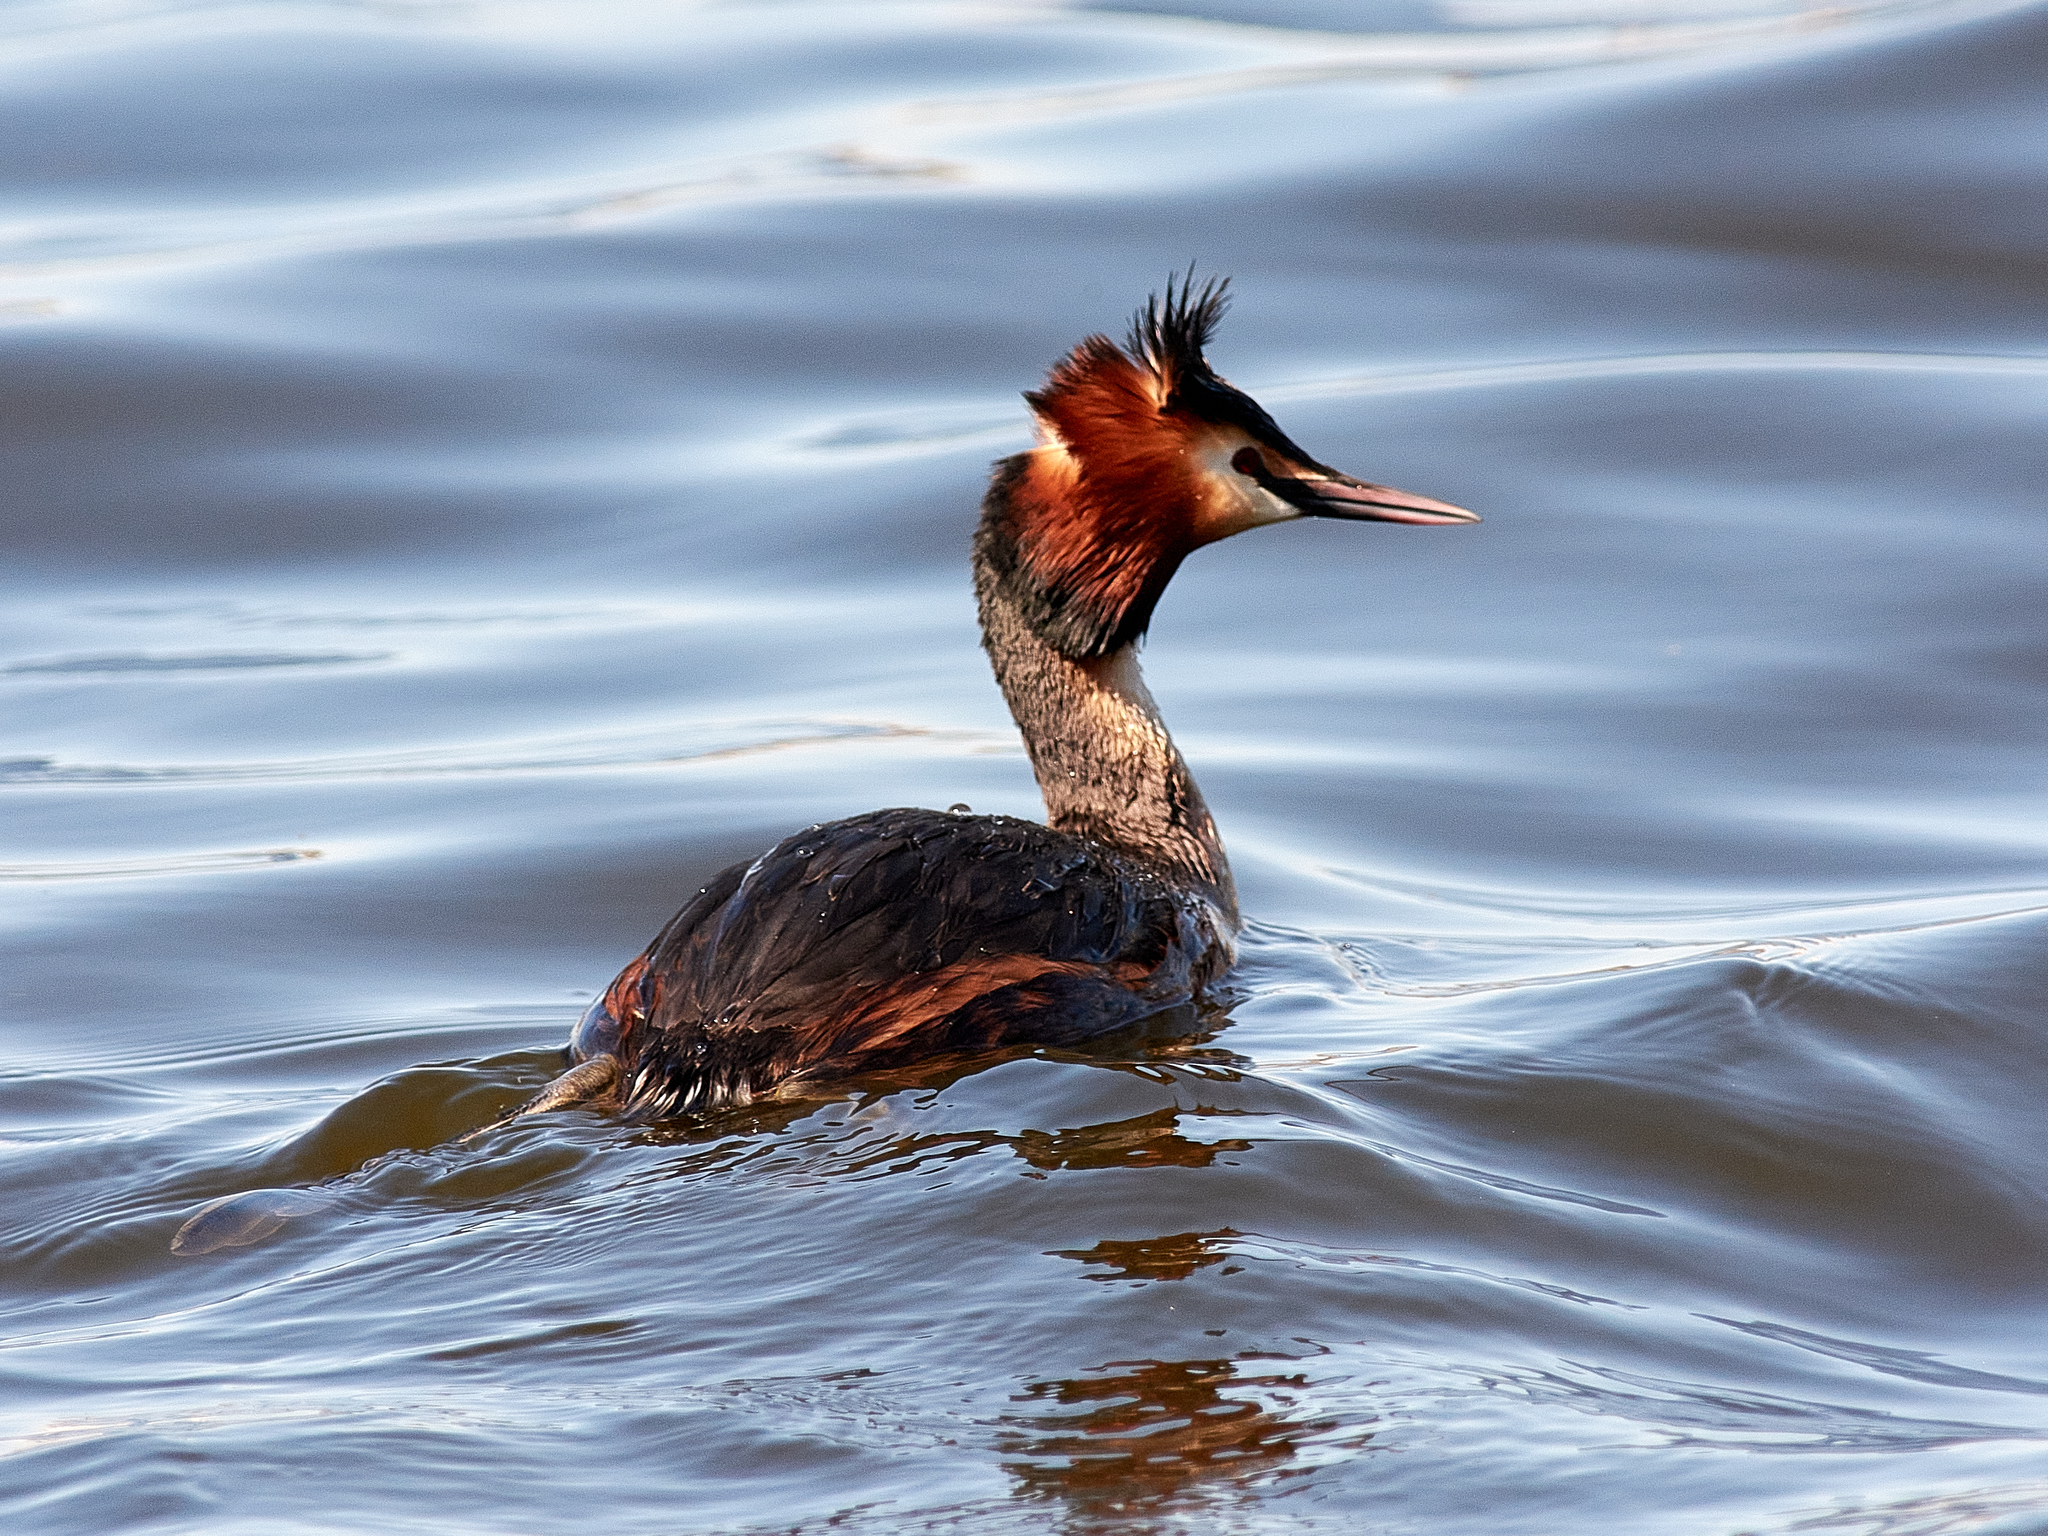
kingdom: Animalia
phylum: Chordata
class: Aves
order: Podicipediformes
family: Podicipedidae
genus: Podiceps
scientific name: Podiceps cristatus
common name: Great crested grebe
